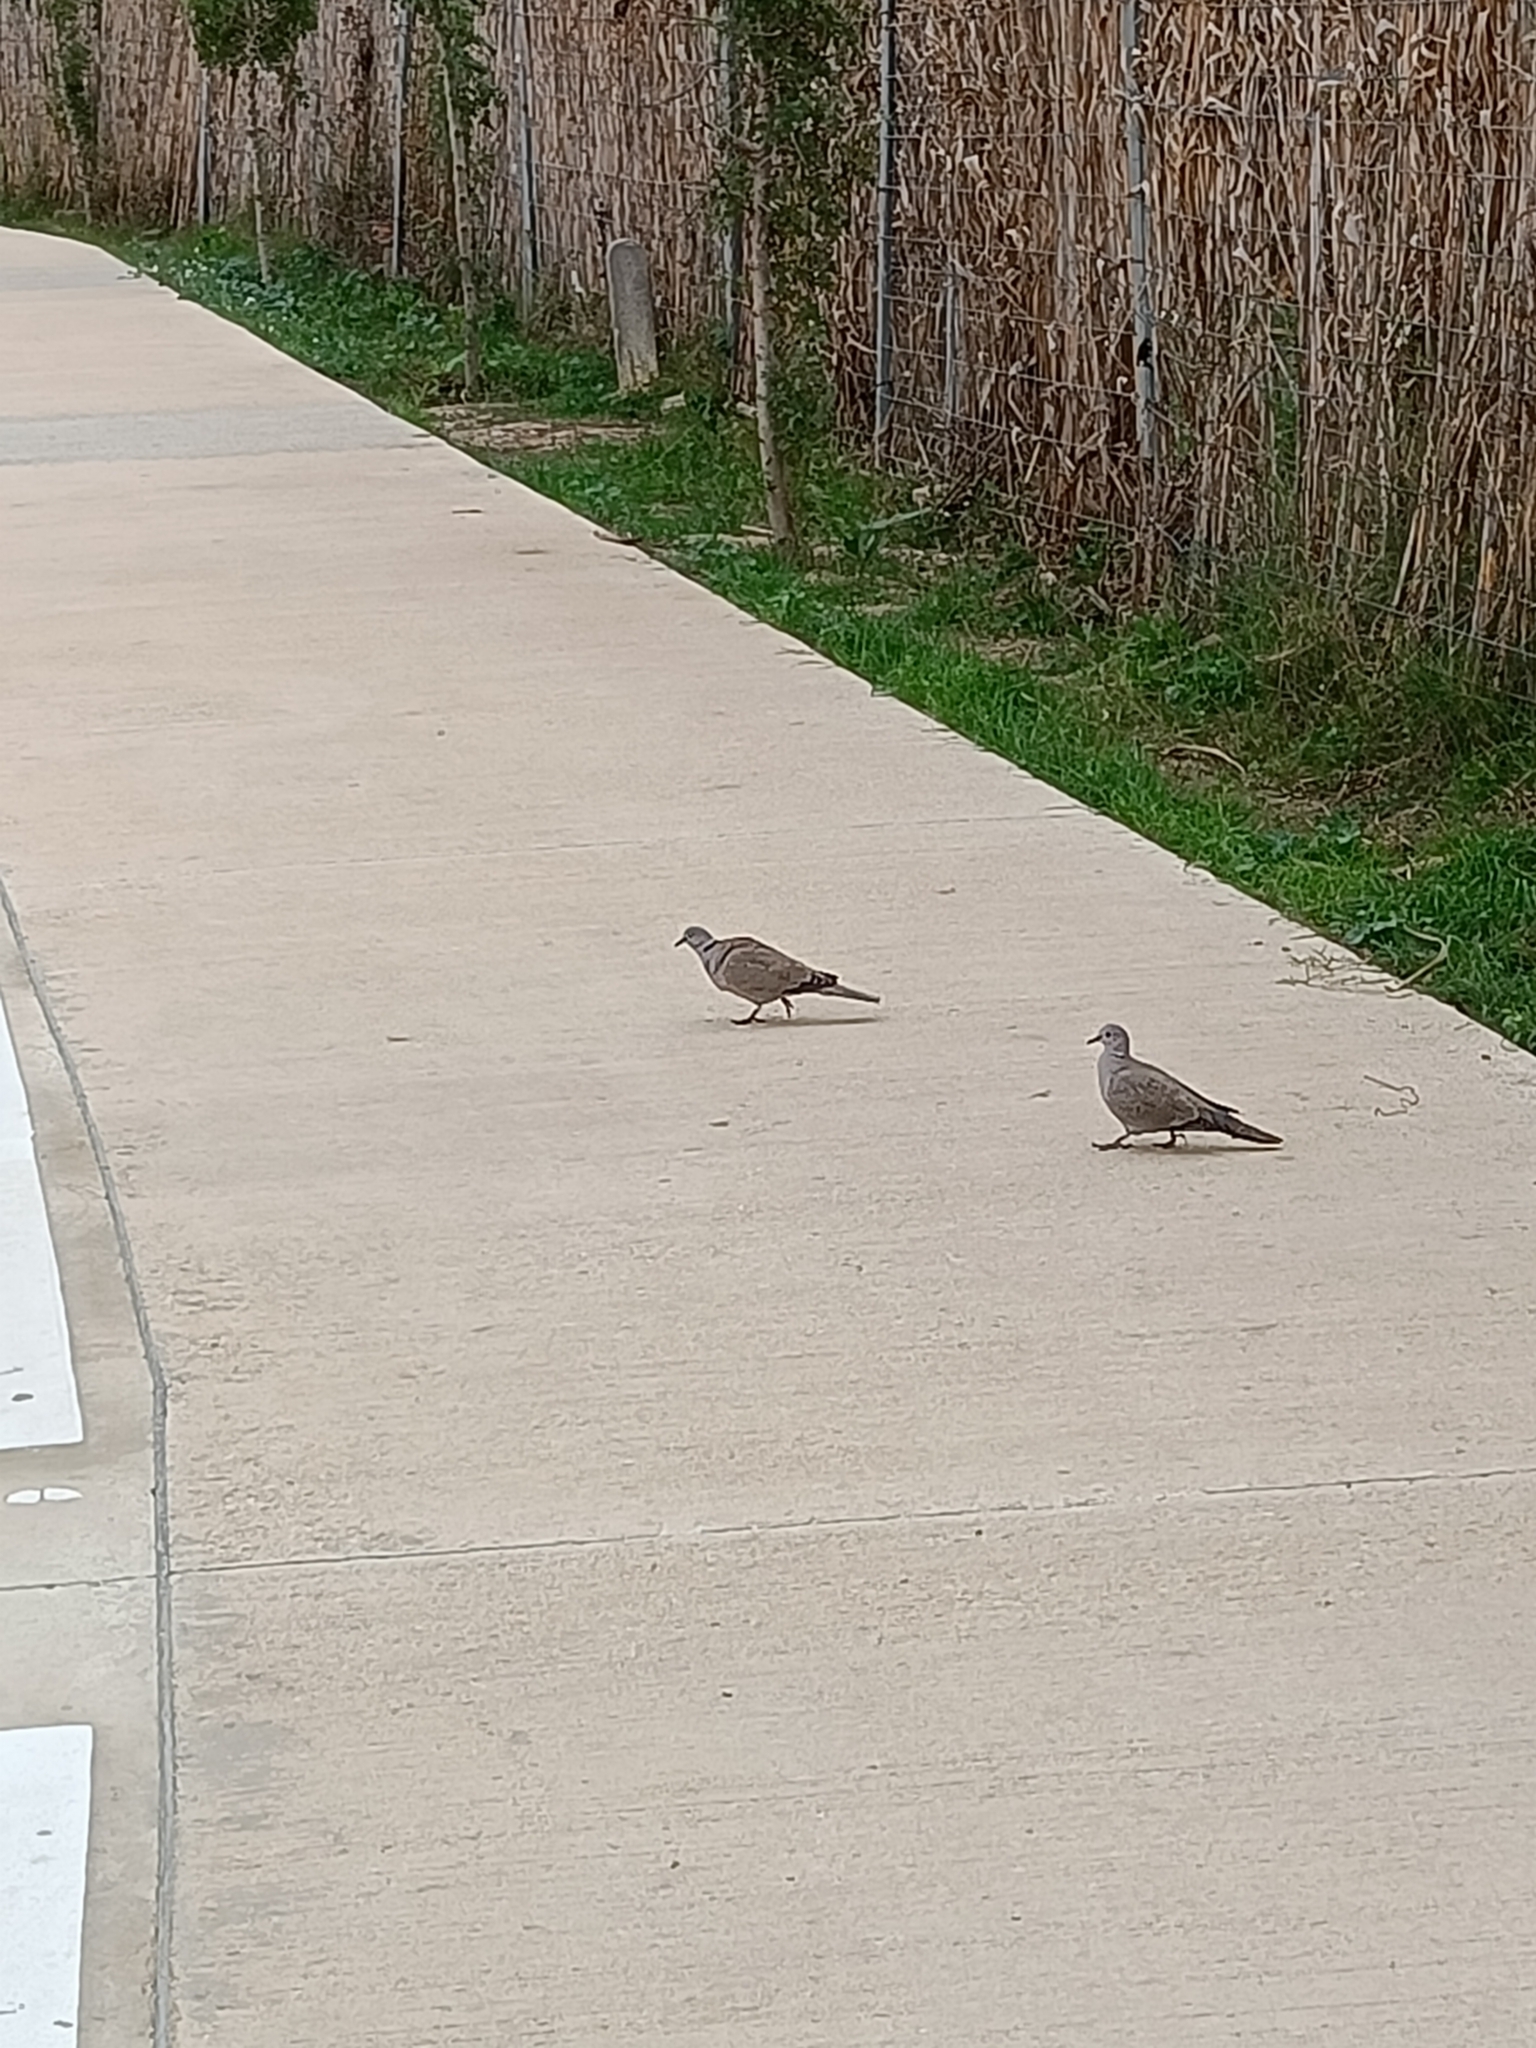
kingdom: Animalia
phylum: Chordata
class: Aves
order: Columbiformes
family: Columbidae
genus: Streptopelia
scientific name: Streptopelia decaocto
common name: Eurasian collared dove
